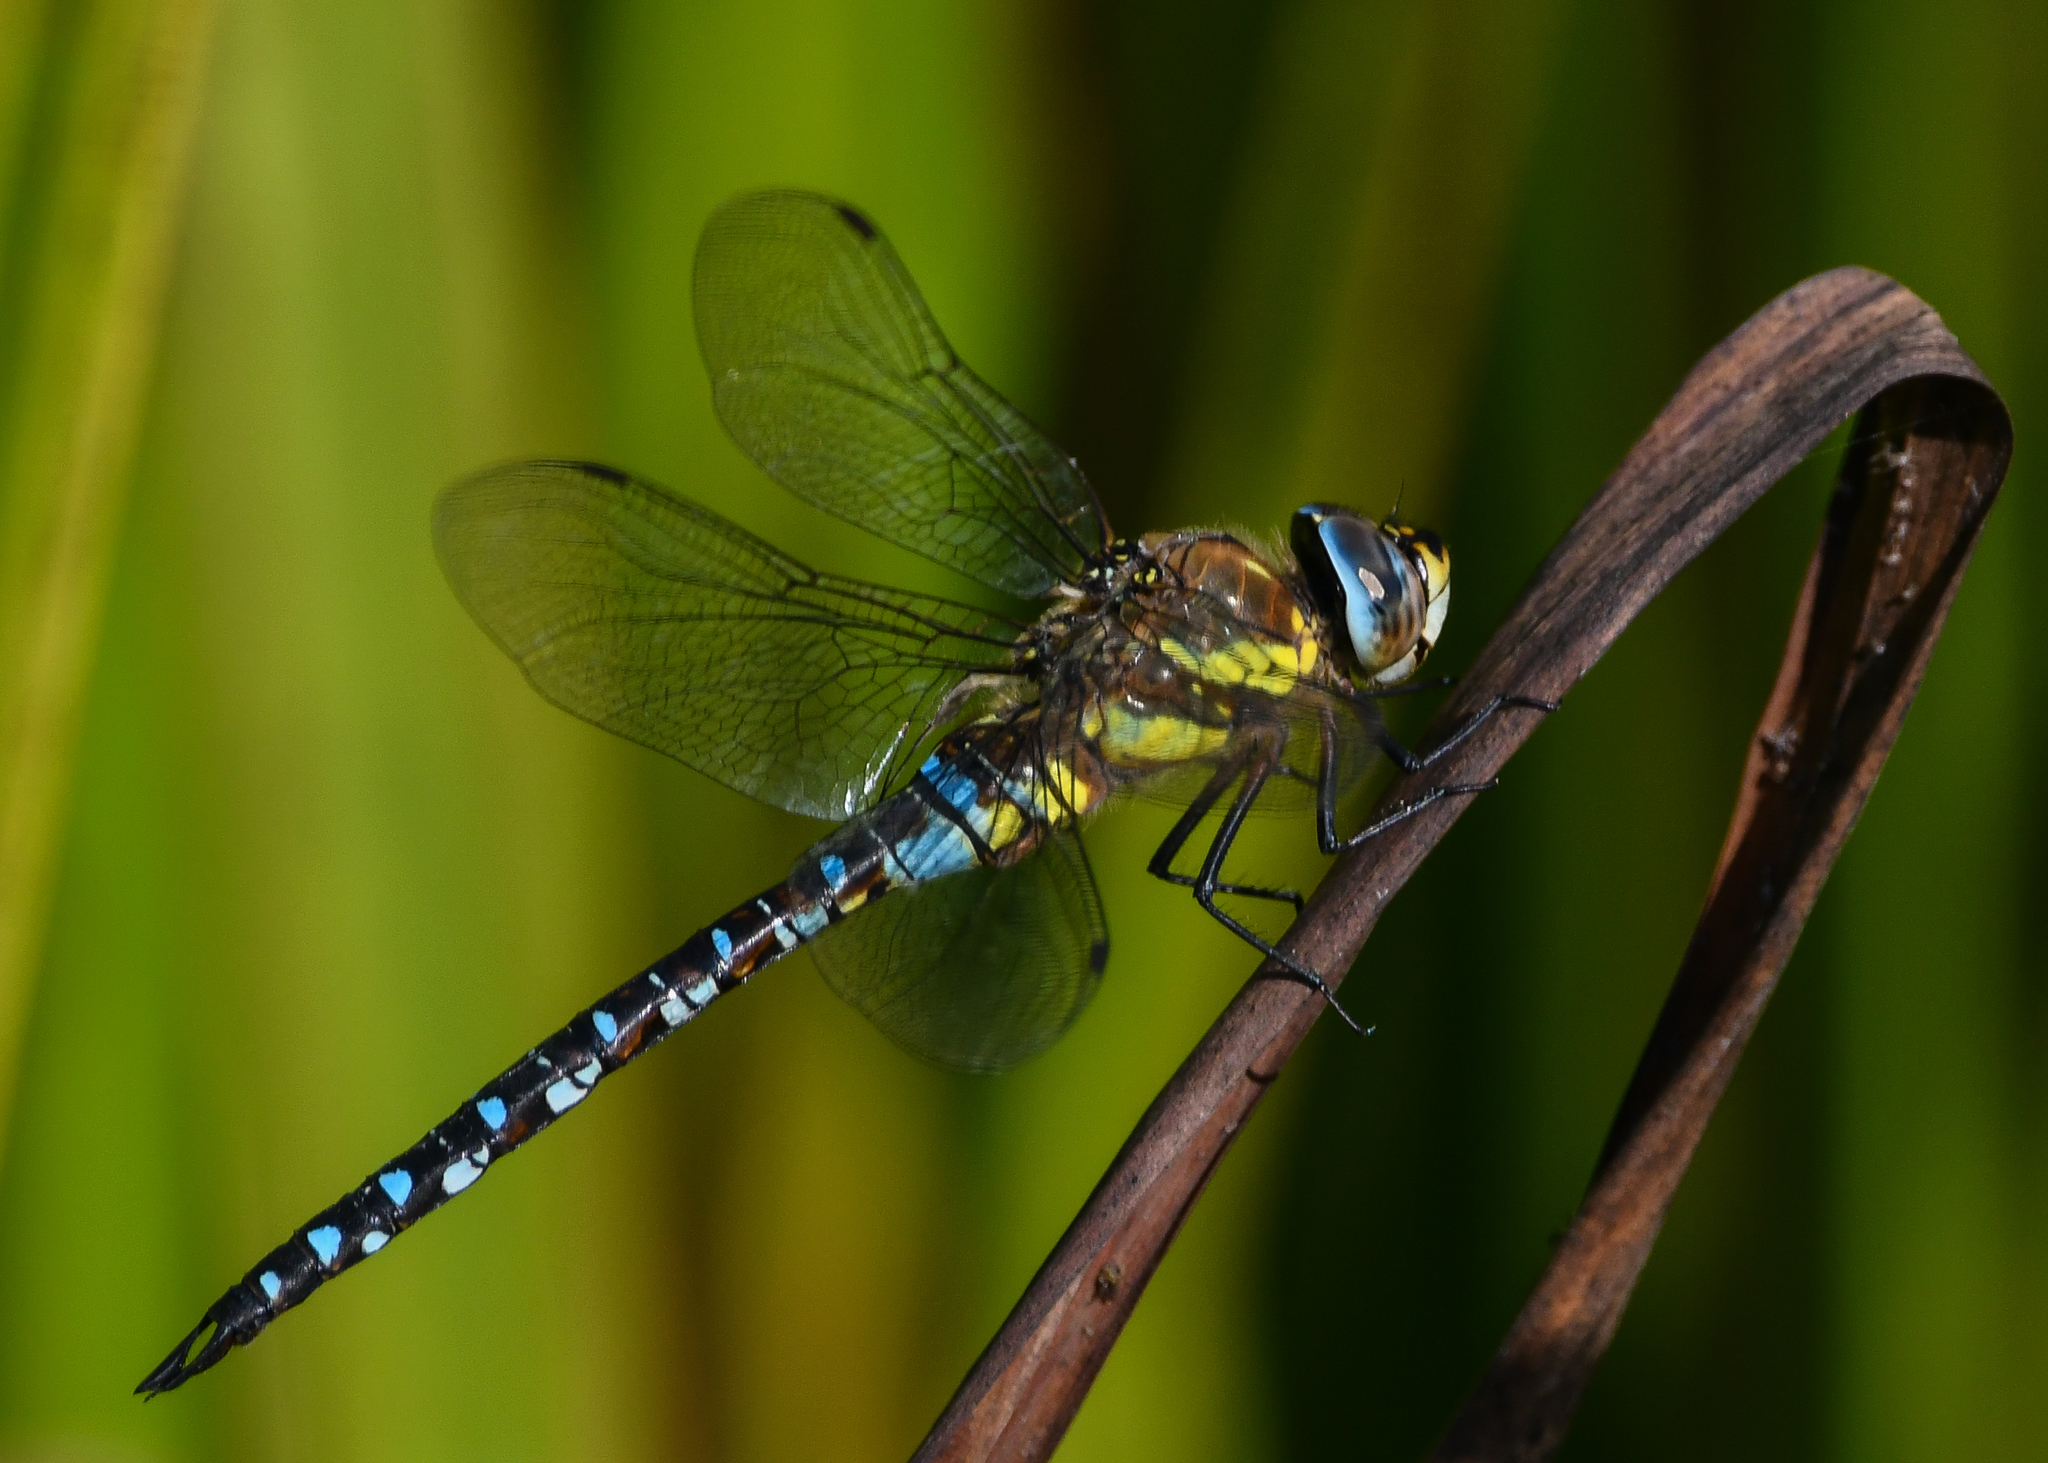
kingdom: Animalia
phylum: Arthropoda
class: Insecta
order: Odonata
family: Aeshnidae
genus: Aeshna
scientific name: Aeshna mixta
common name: Migrant hawker
